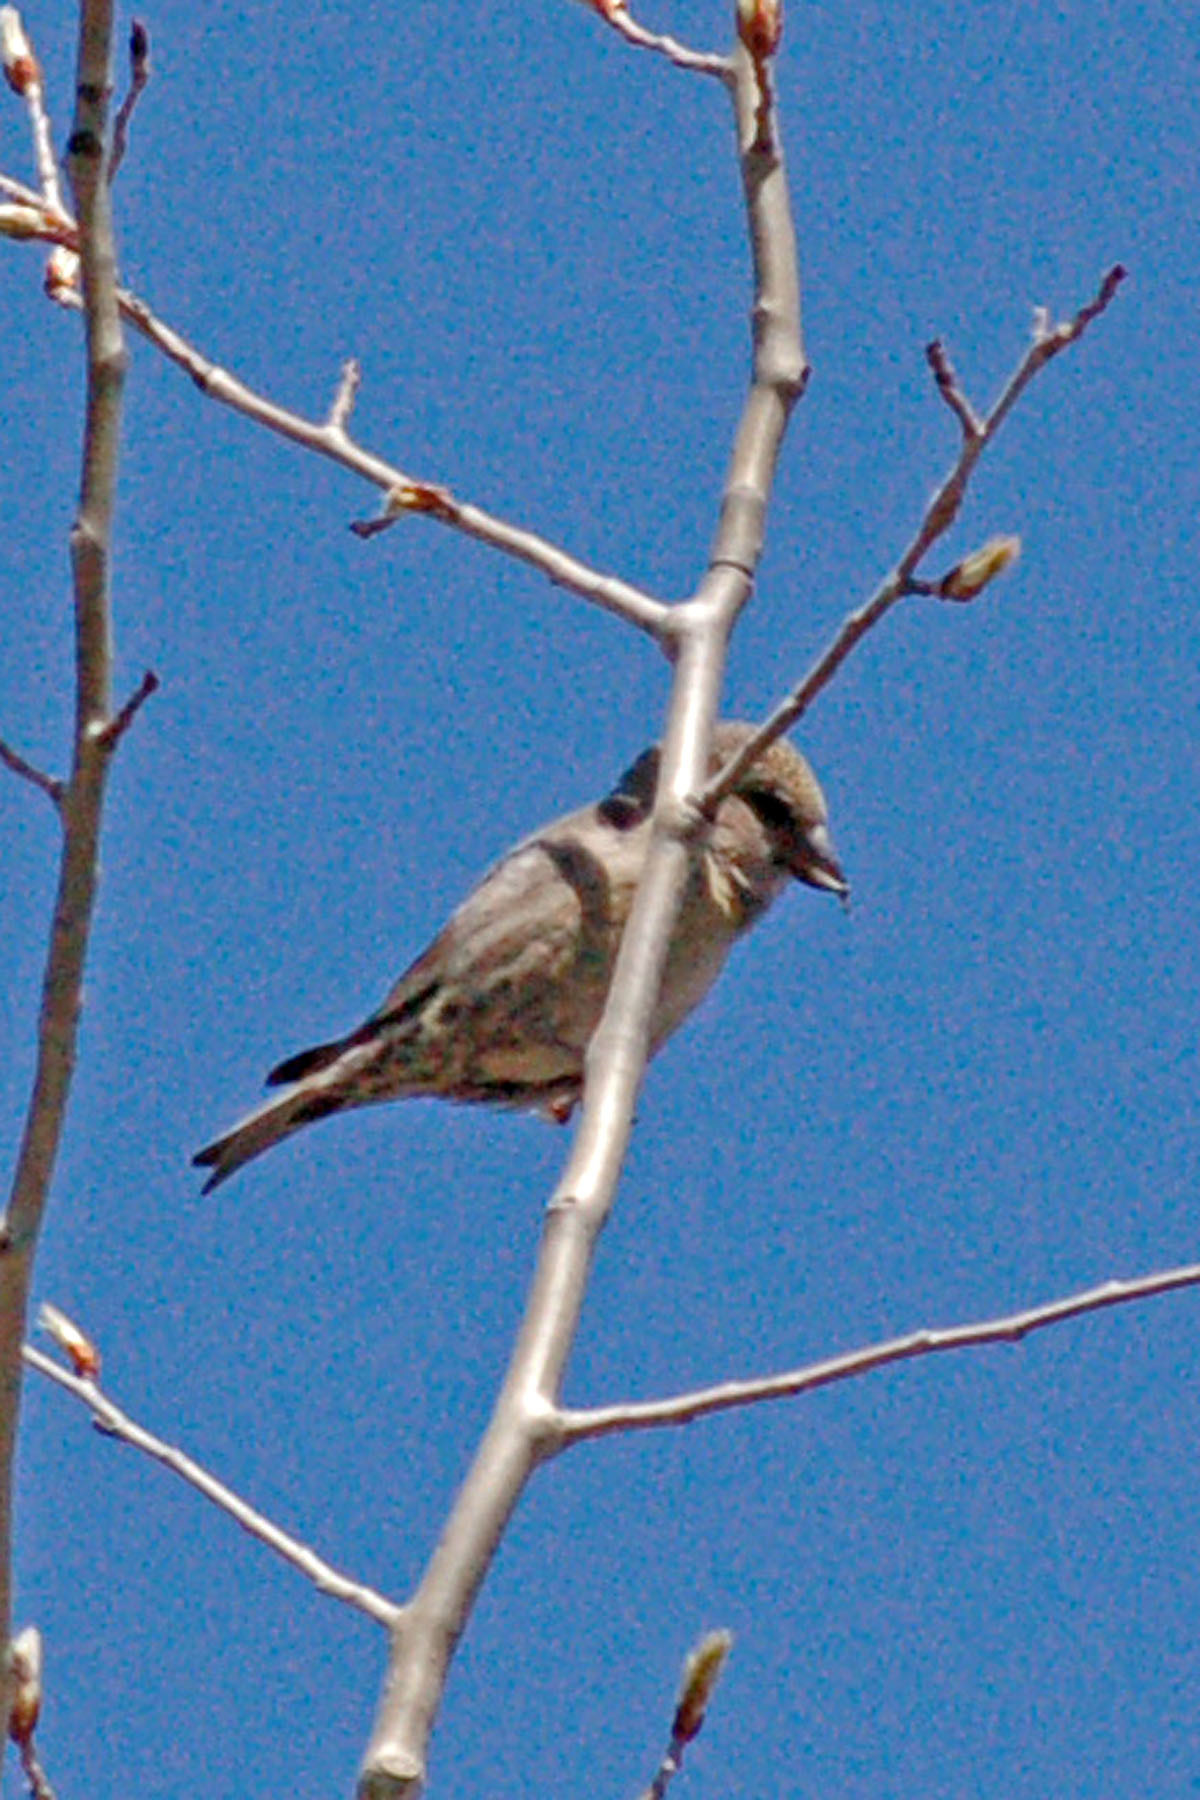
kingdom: Animalia
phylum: Chordata
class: Aves
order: Passeriformes
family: Fringillidae
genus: Loxia
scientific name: Loxia curvirostra
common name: Red crossbill
